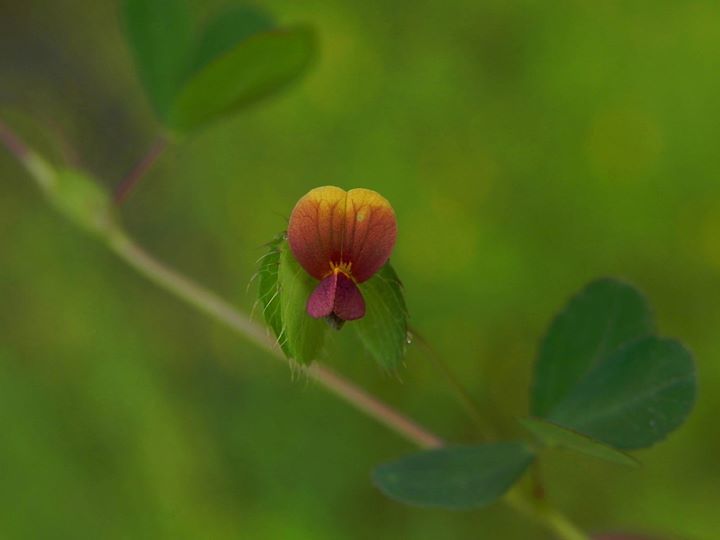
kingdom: Plantae
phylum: Tracheophyta
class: Magnoliopsida
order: Fabales
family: Fabaceae
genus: Geissaspis
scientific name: Geissaspis cristata
